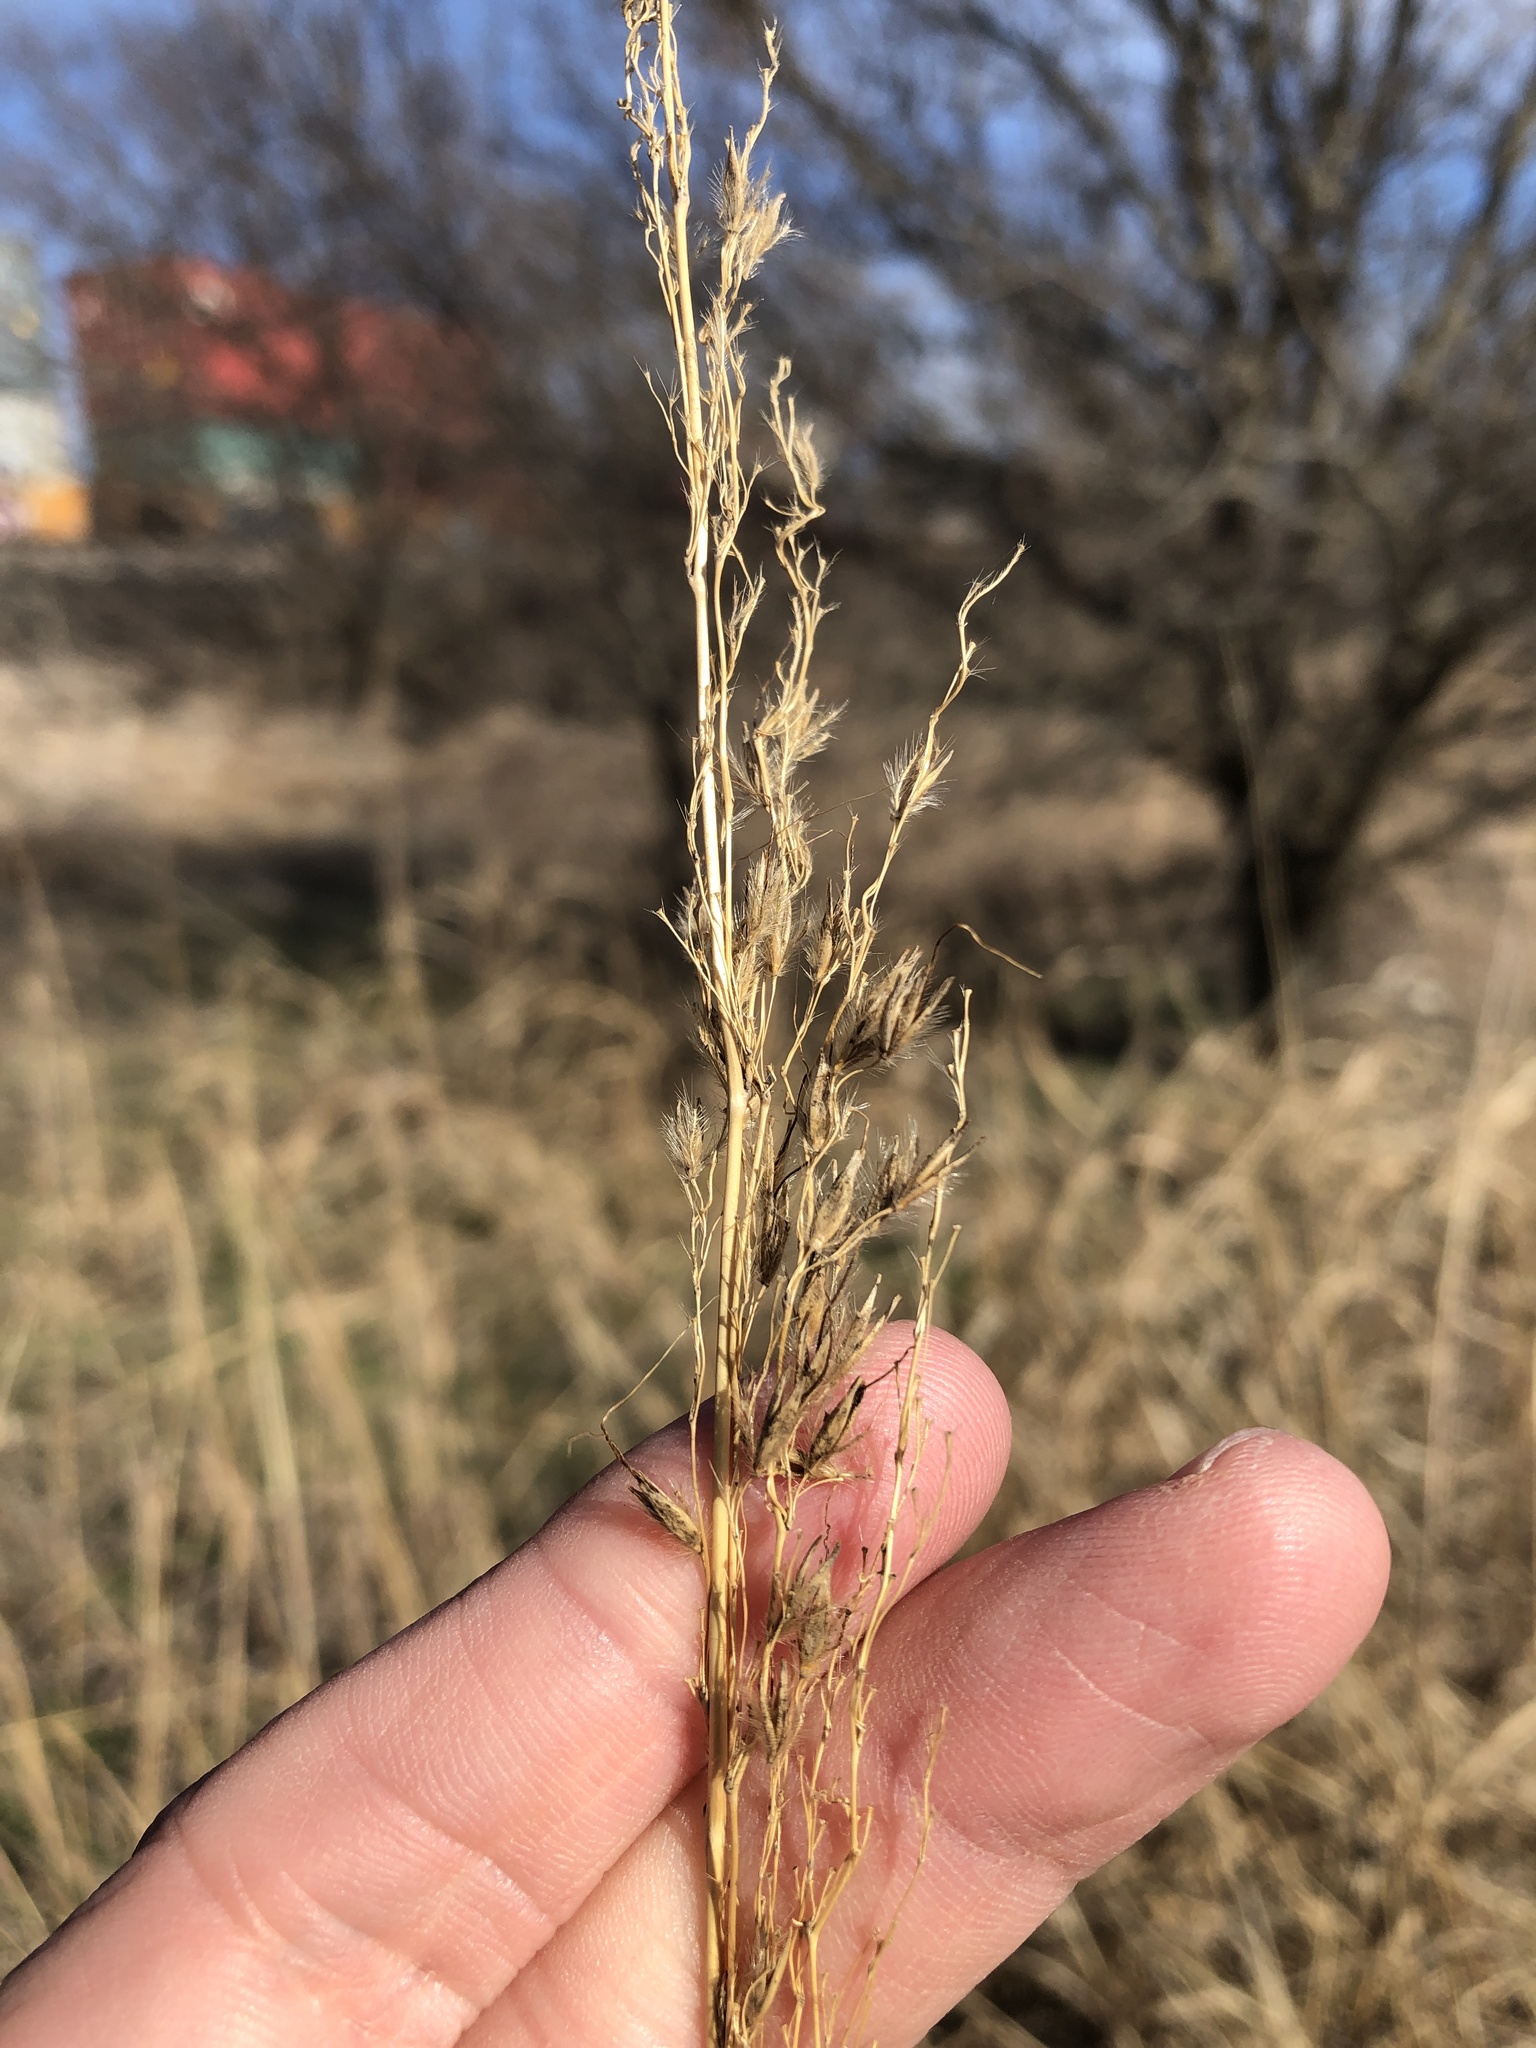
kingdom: Plantae
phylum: Tracheophyta
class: Liliopsida
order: Poales
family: Poaceae
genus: Sorghastrum
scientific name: Sorghastrum nutans
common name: Indian grass
